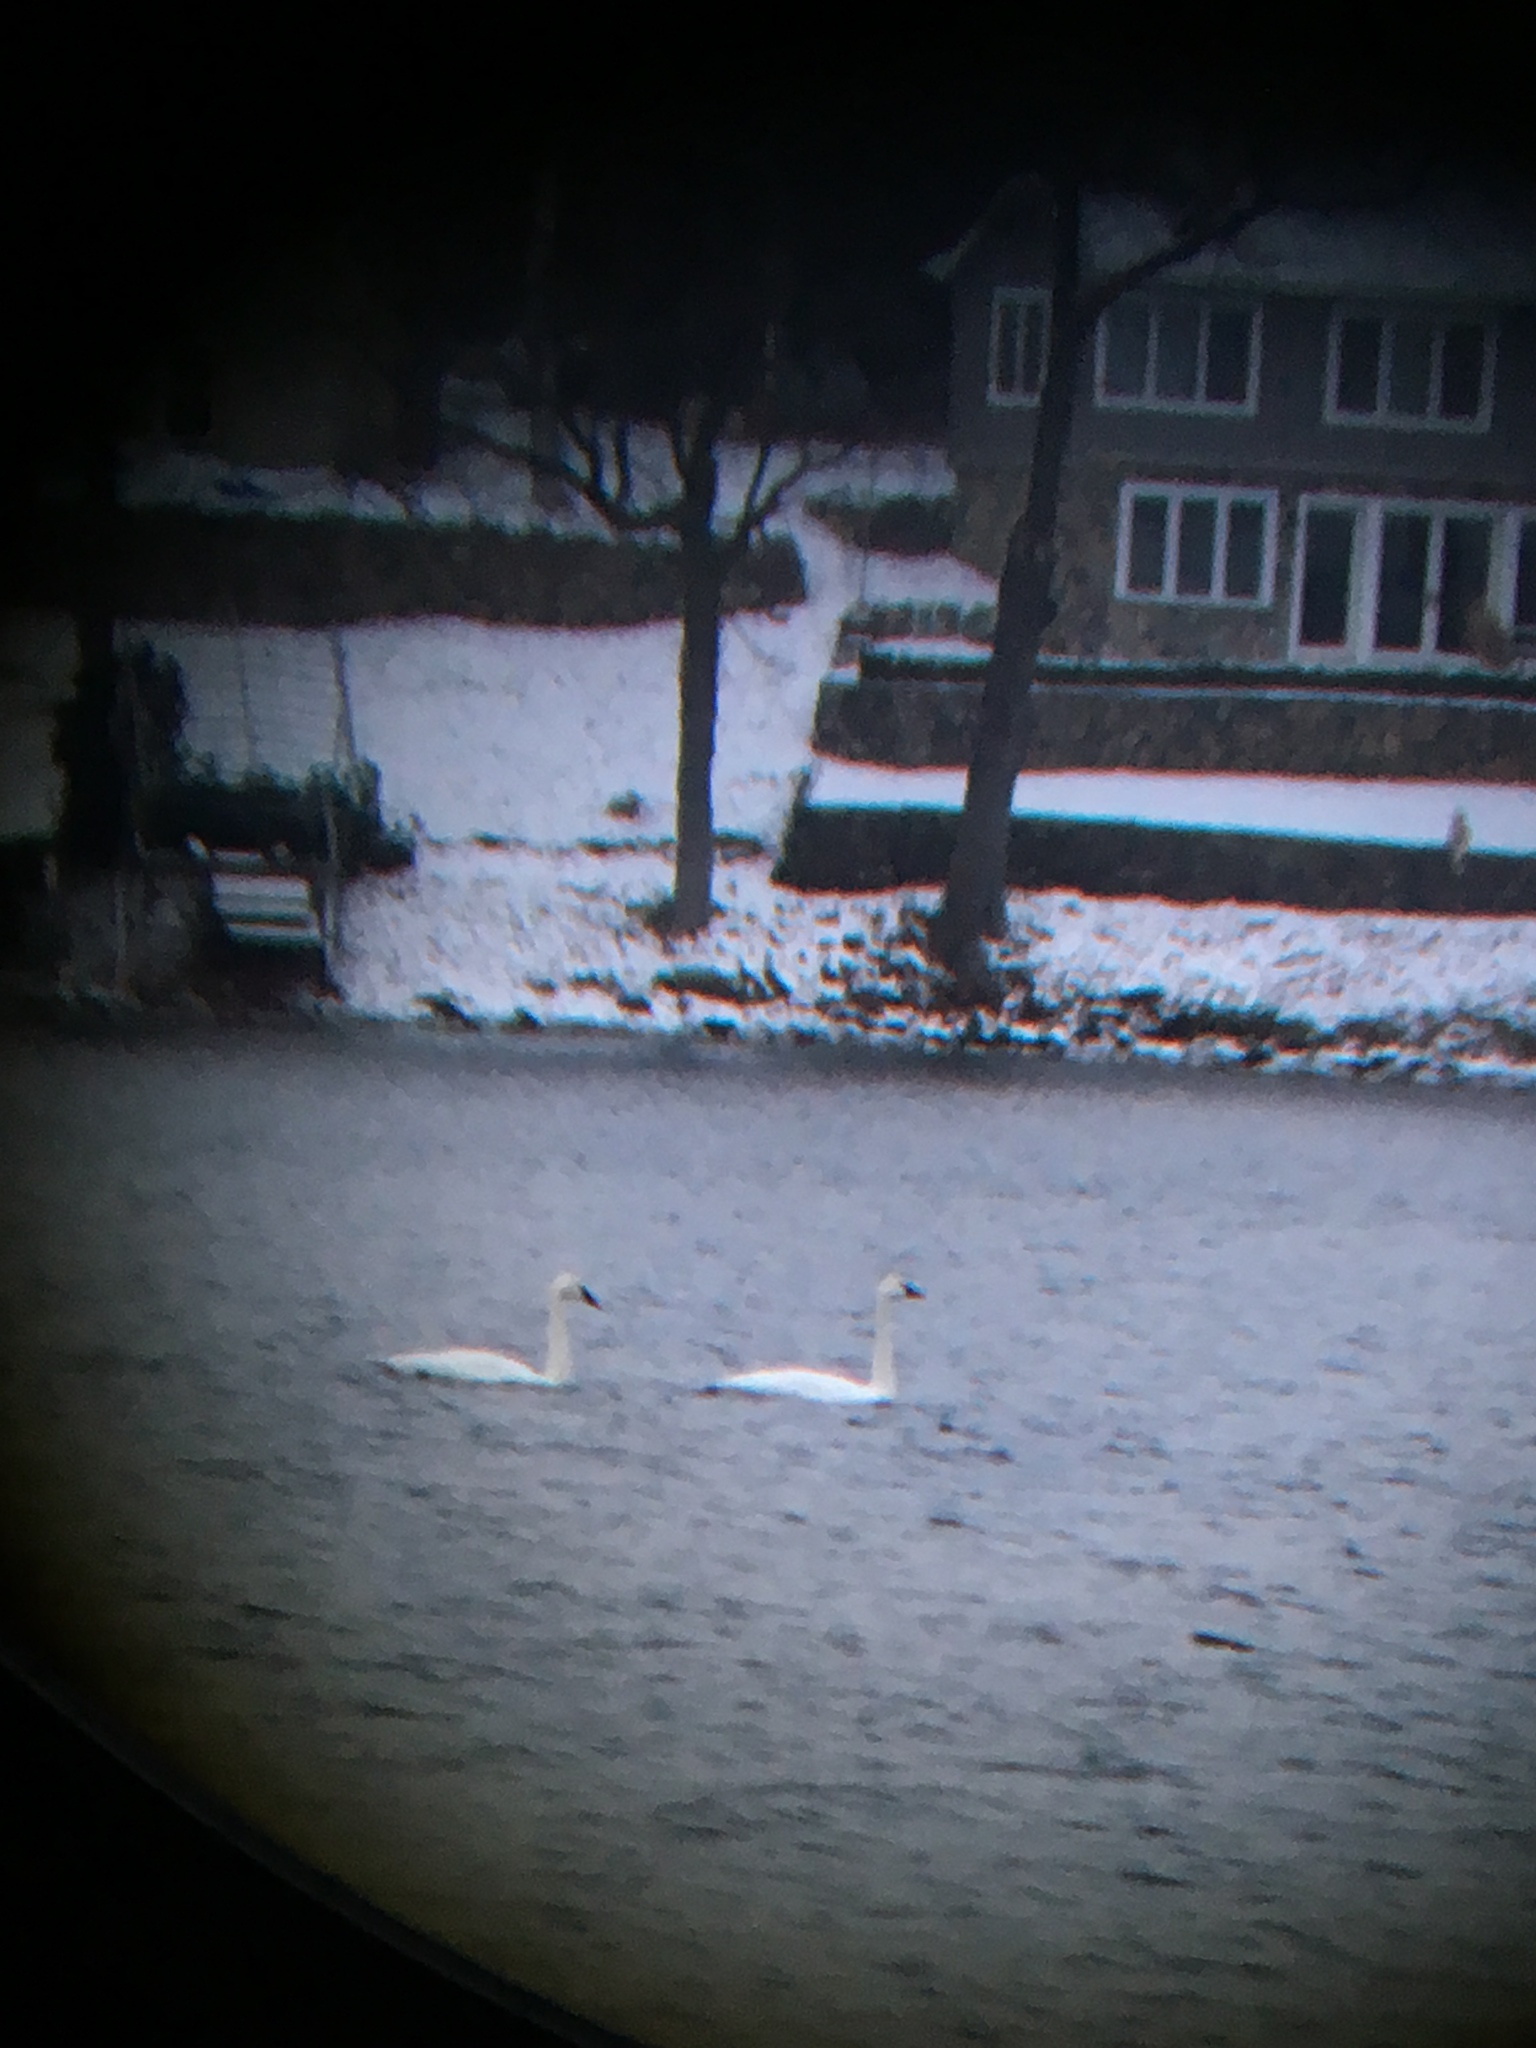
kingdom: Animalia
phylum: Chordata
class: Aves
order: Anseriformes
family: Anatidae
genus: Cygnus
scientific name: Cygnus buccinator
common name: Trumpeter swan
